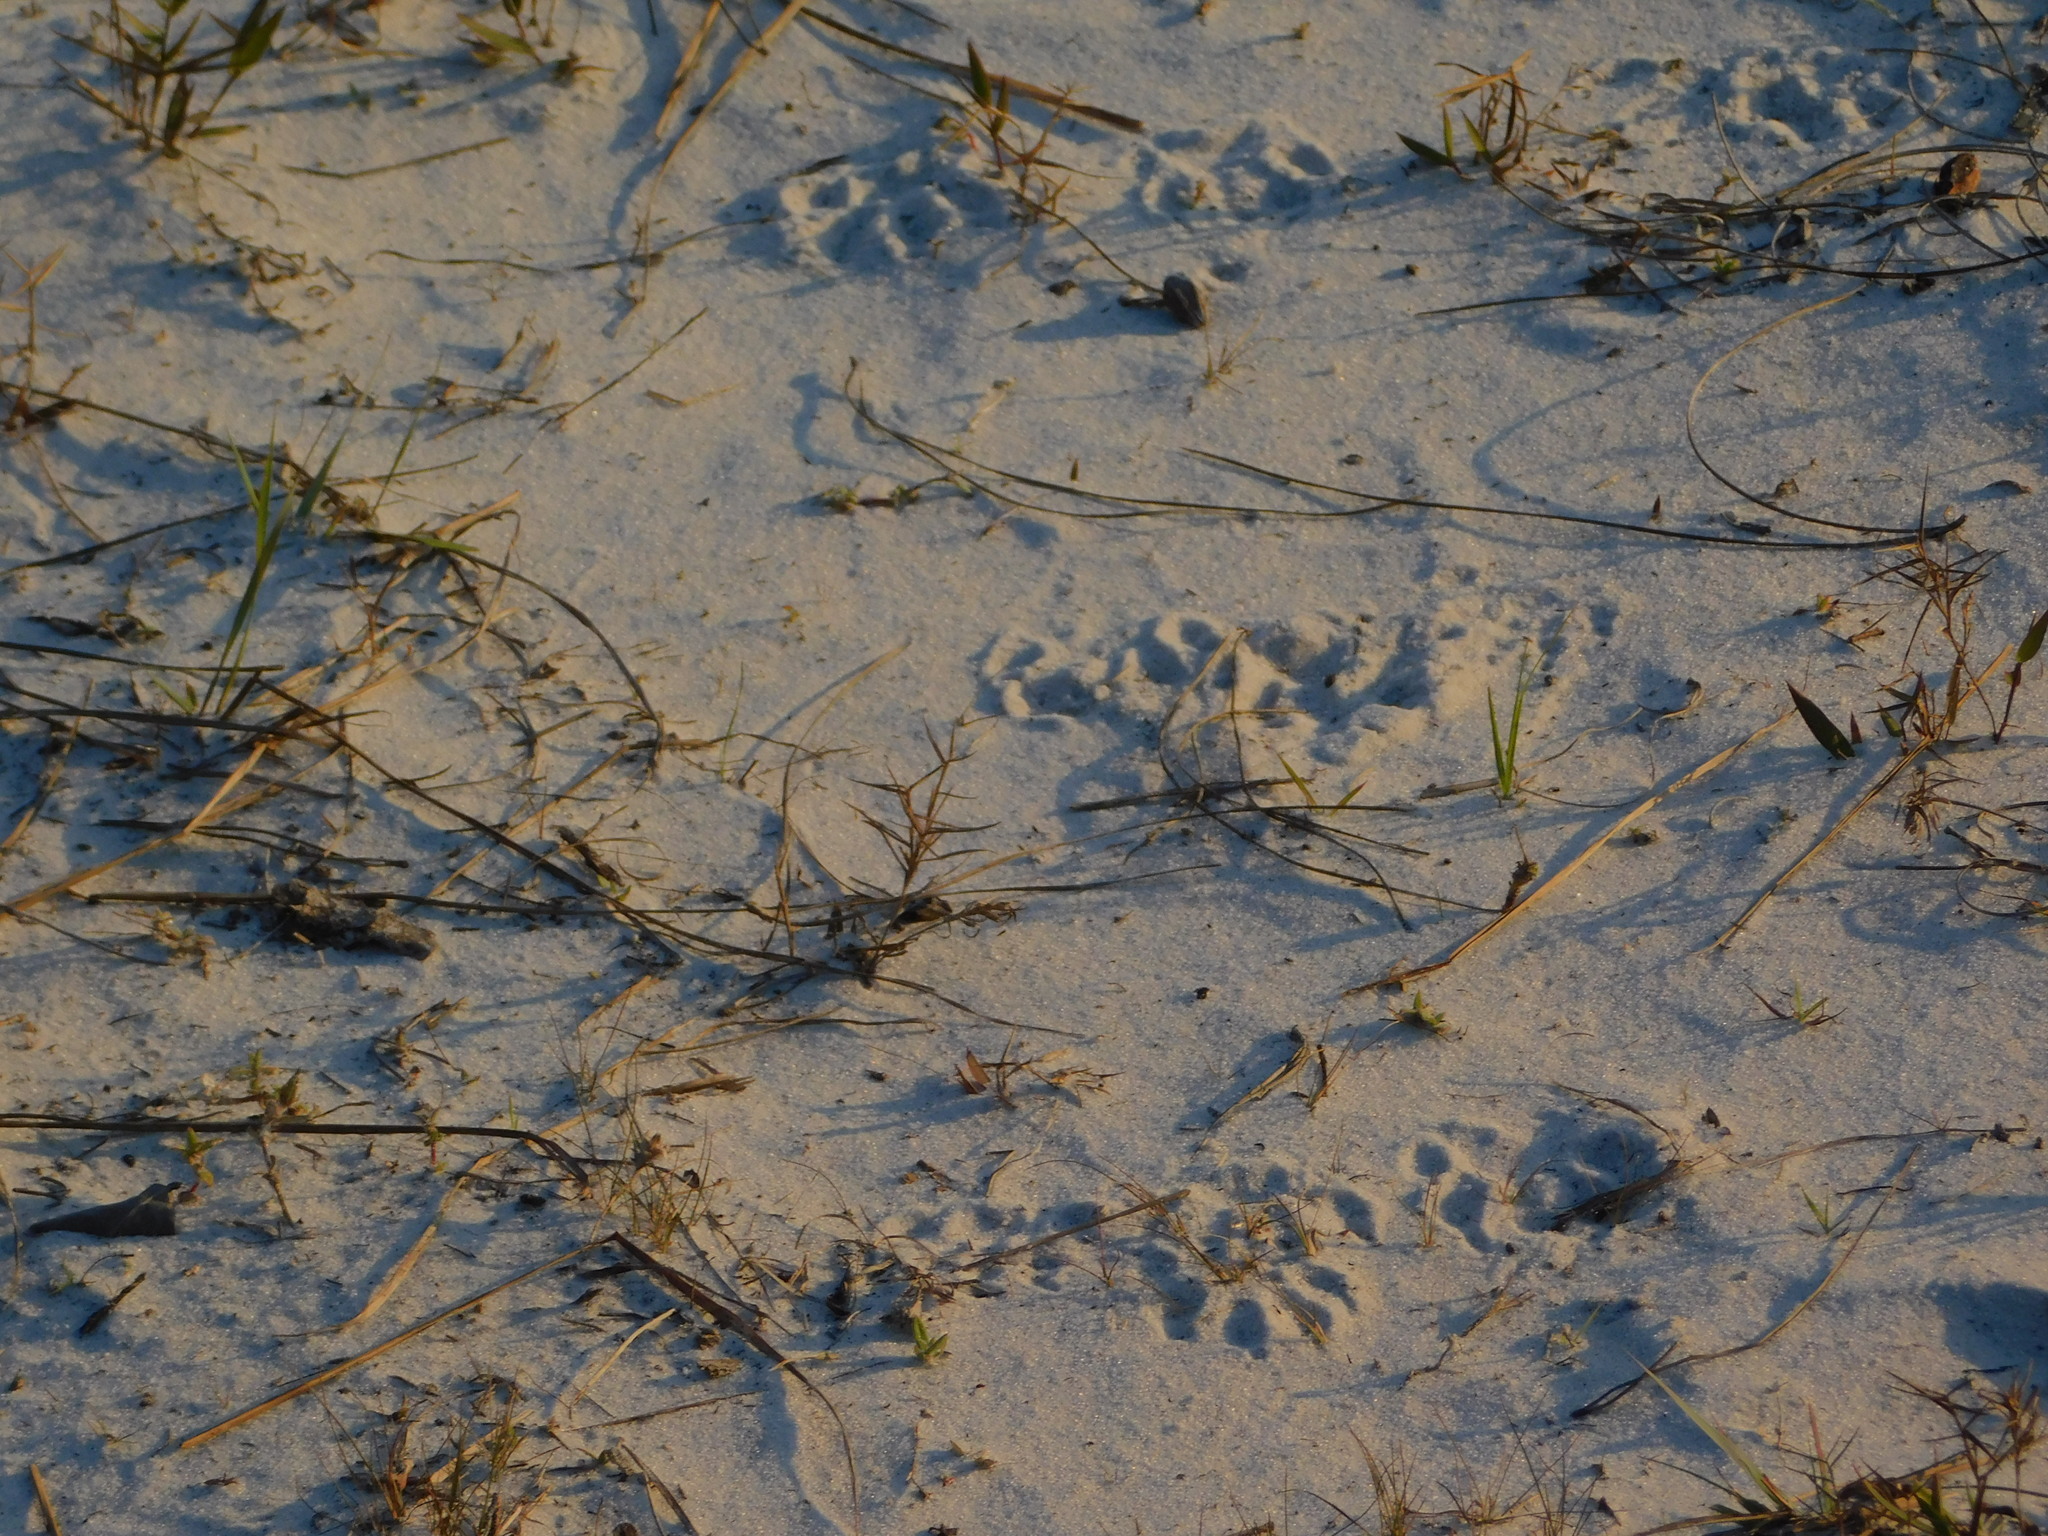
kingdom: Animalia
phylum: Chordata
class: Mammalia
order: Carnivora
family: Procyonidae
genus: Procyon
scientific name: Procyon lotor
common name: Raccoon
